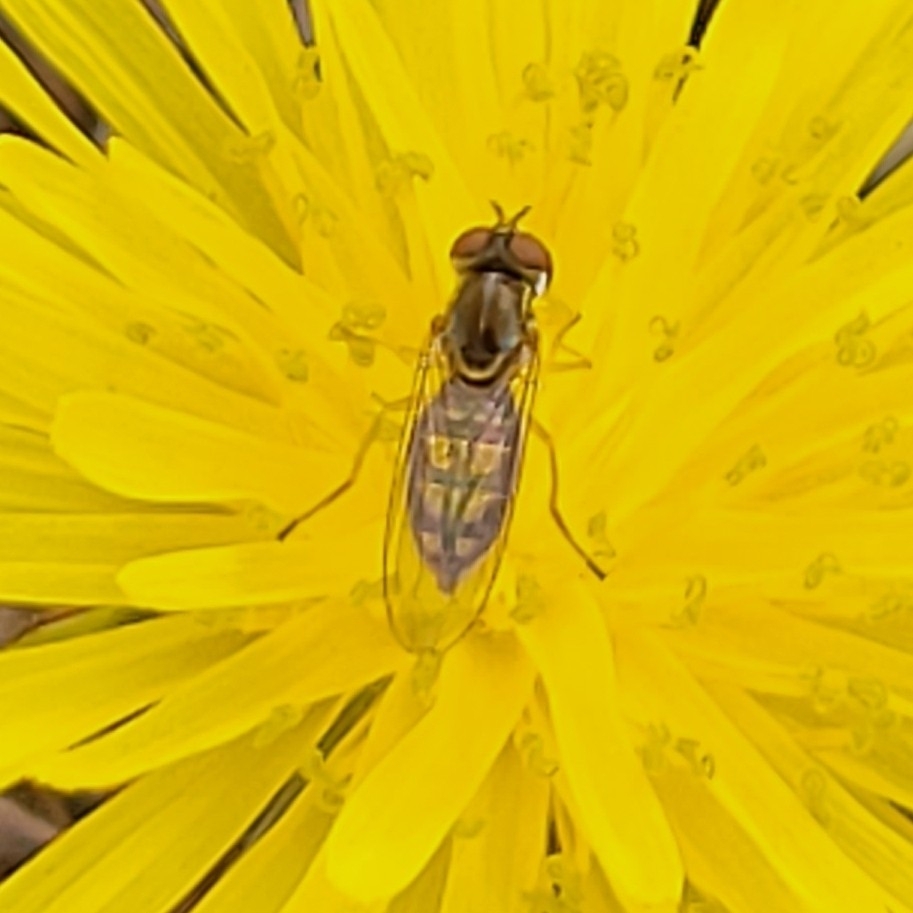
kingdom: Animalia
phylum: Arthropoda
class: Insecta
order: Diptera
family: Syrphidae
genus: Toxomerus
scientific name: Toxomerus marginatus
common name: Syrphid fly
